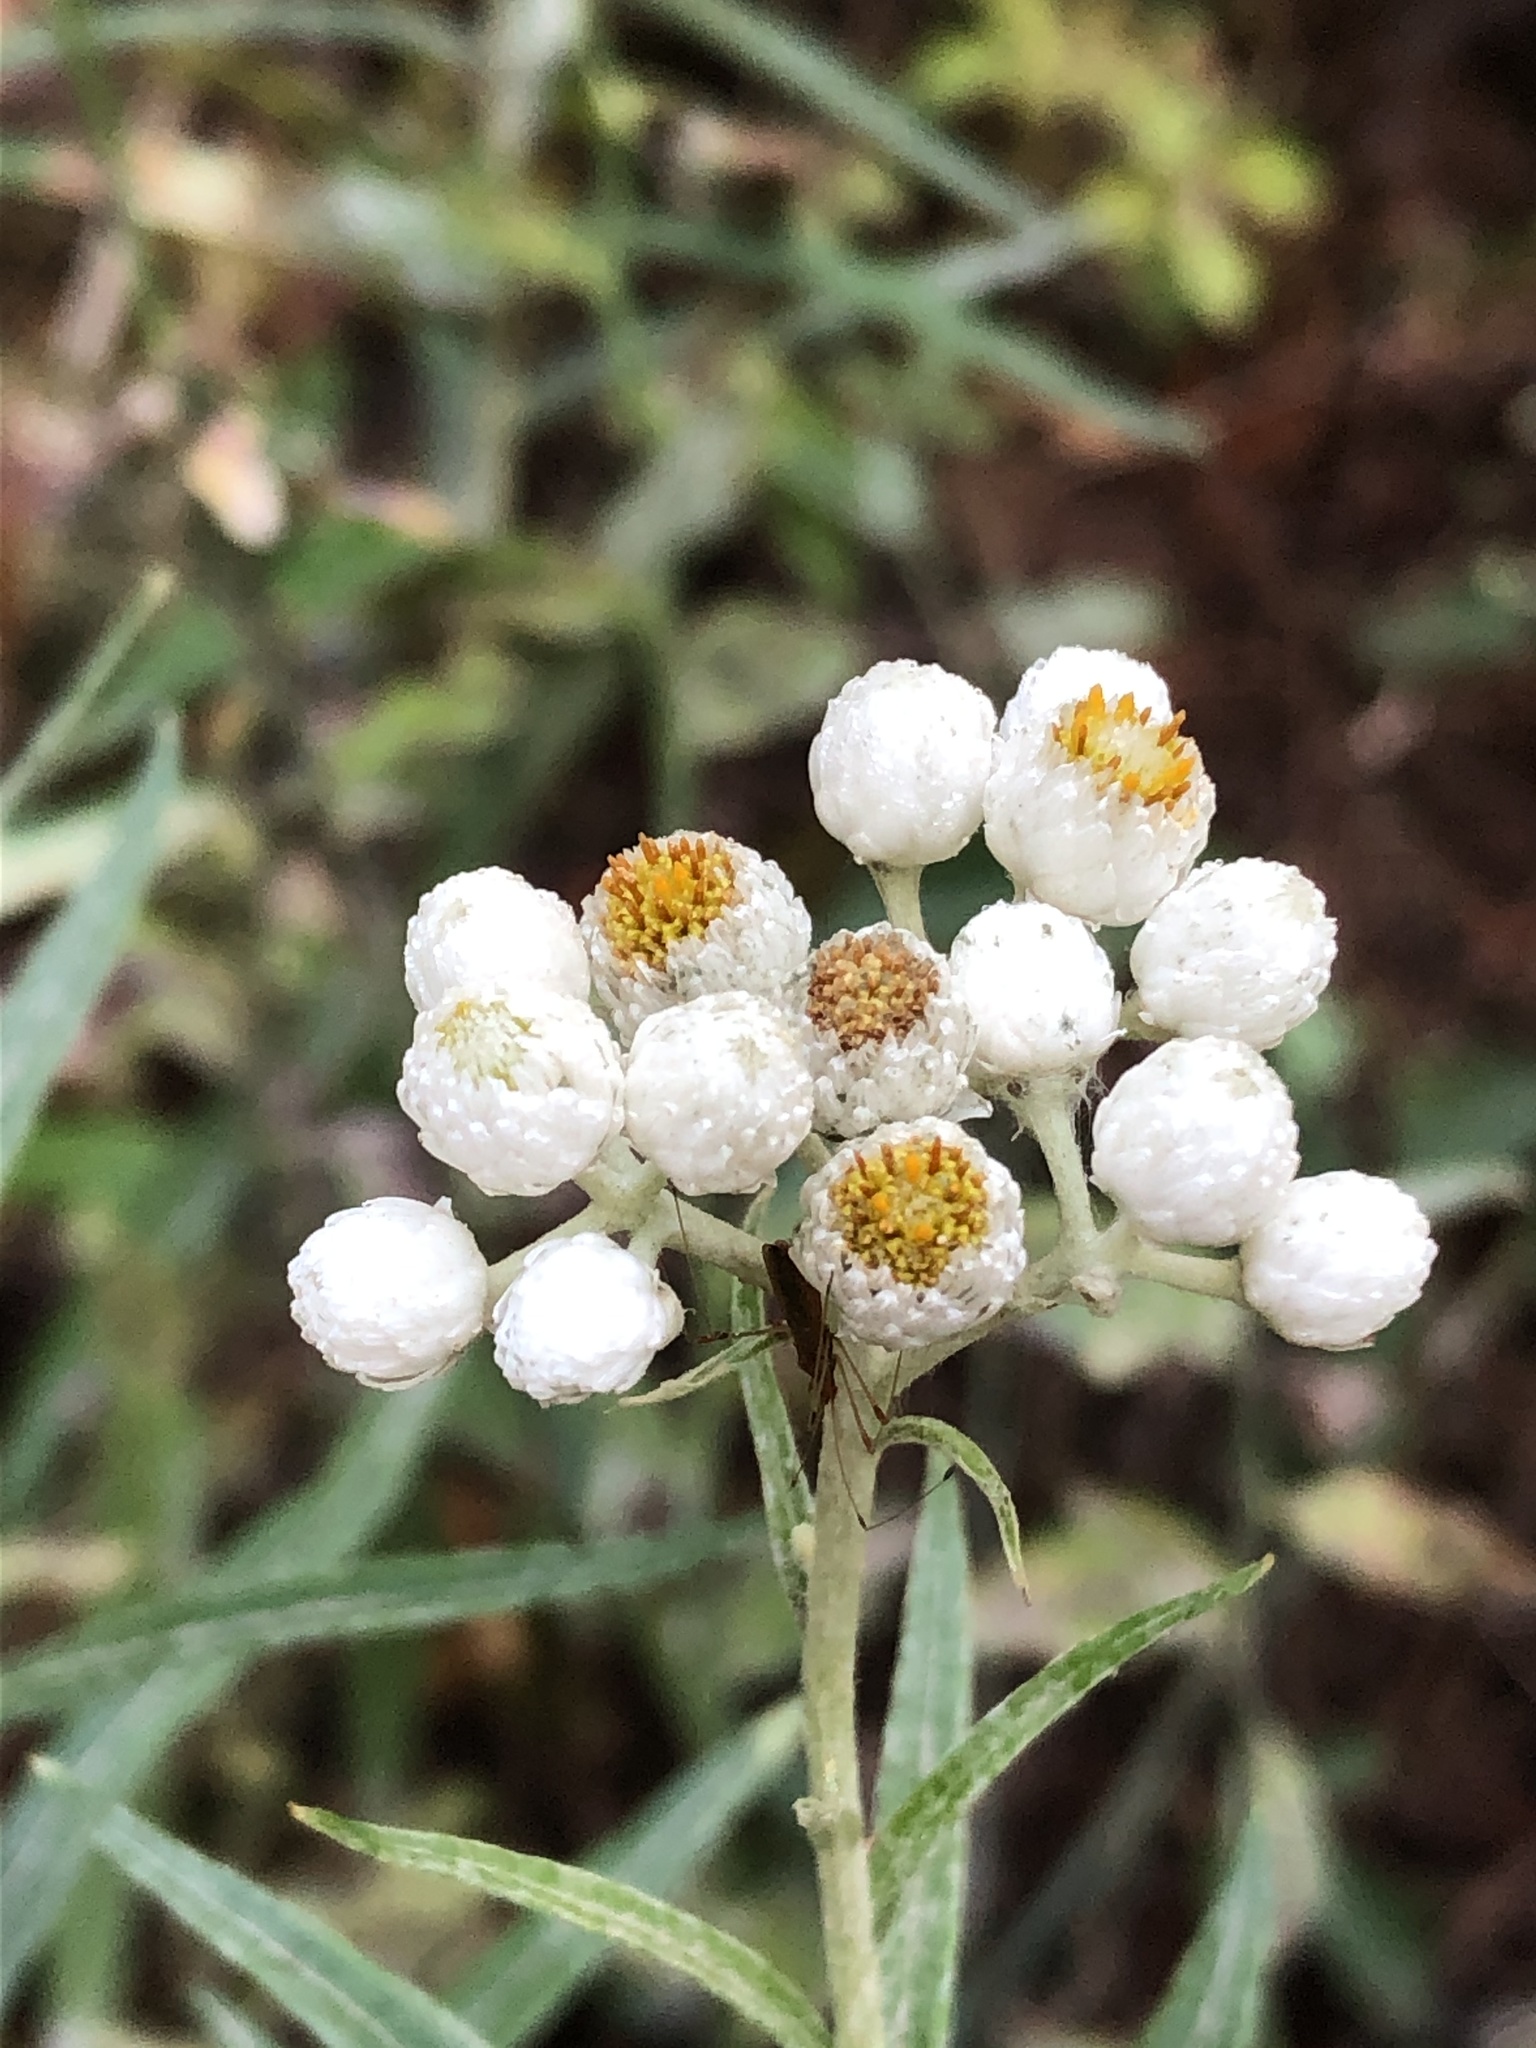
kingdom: Plantae
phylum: Tracheophyta
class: Magnoliopsida
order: Asterales
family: Asteraceae
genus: Anaphalis
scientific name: Anaphalis margaritacea
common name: Pearly everlasting
